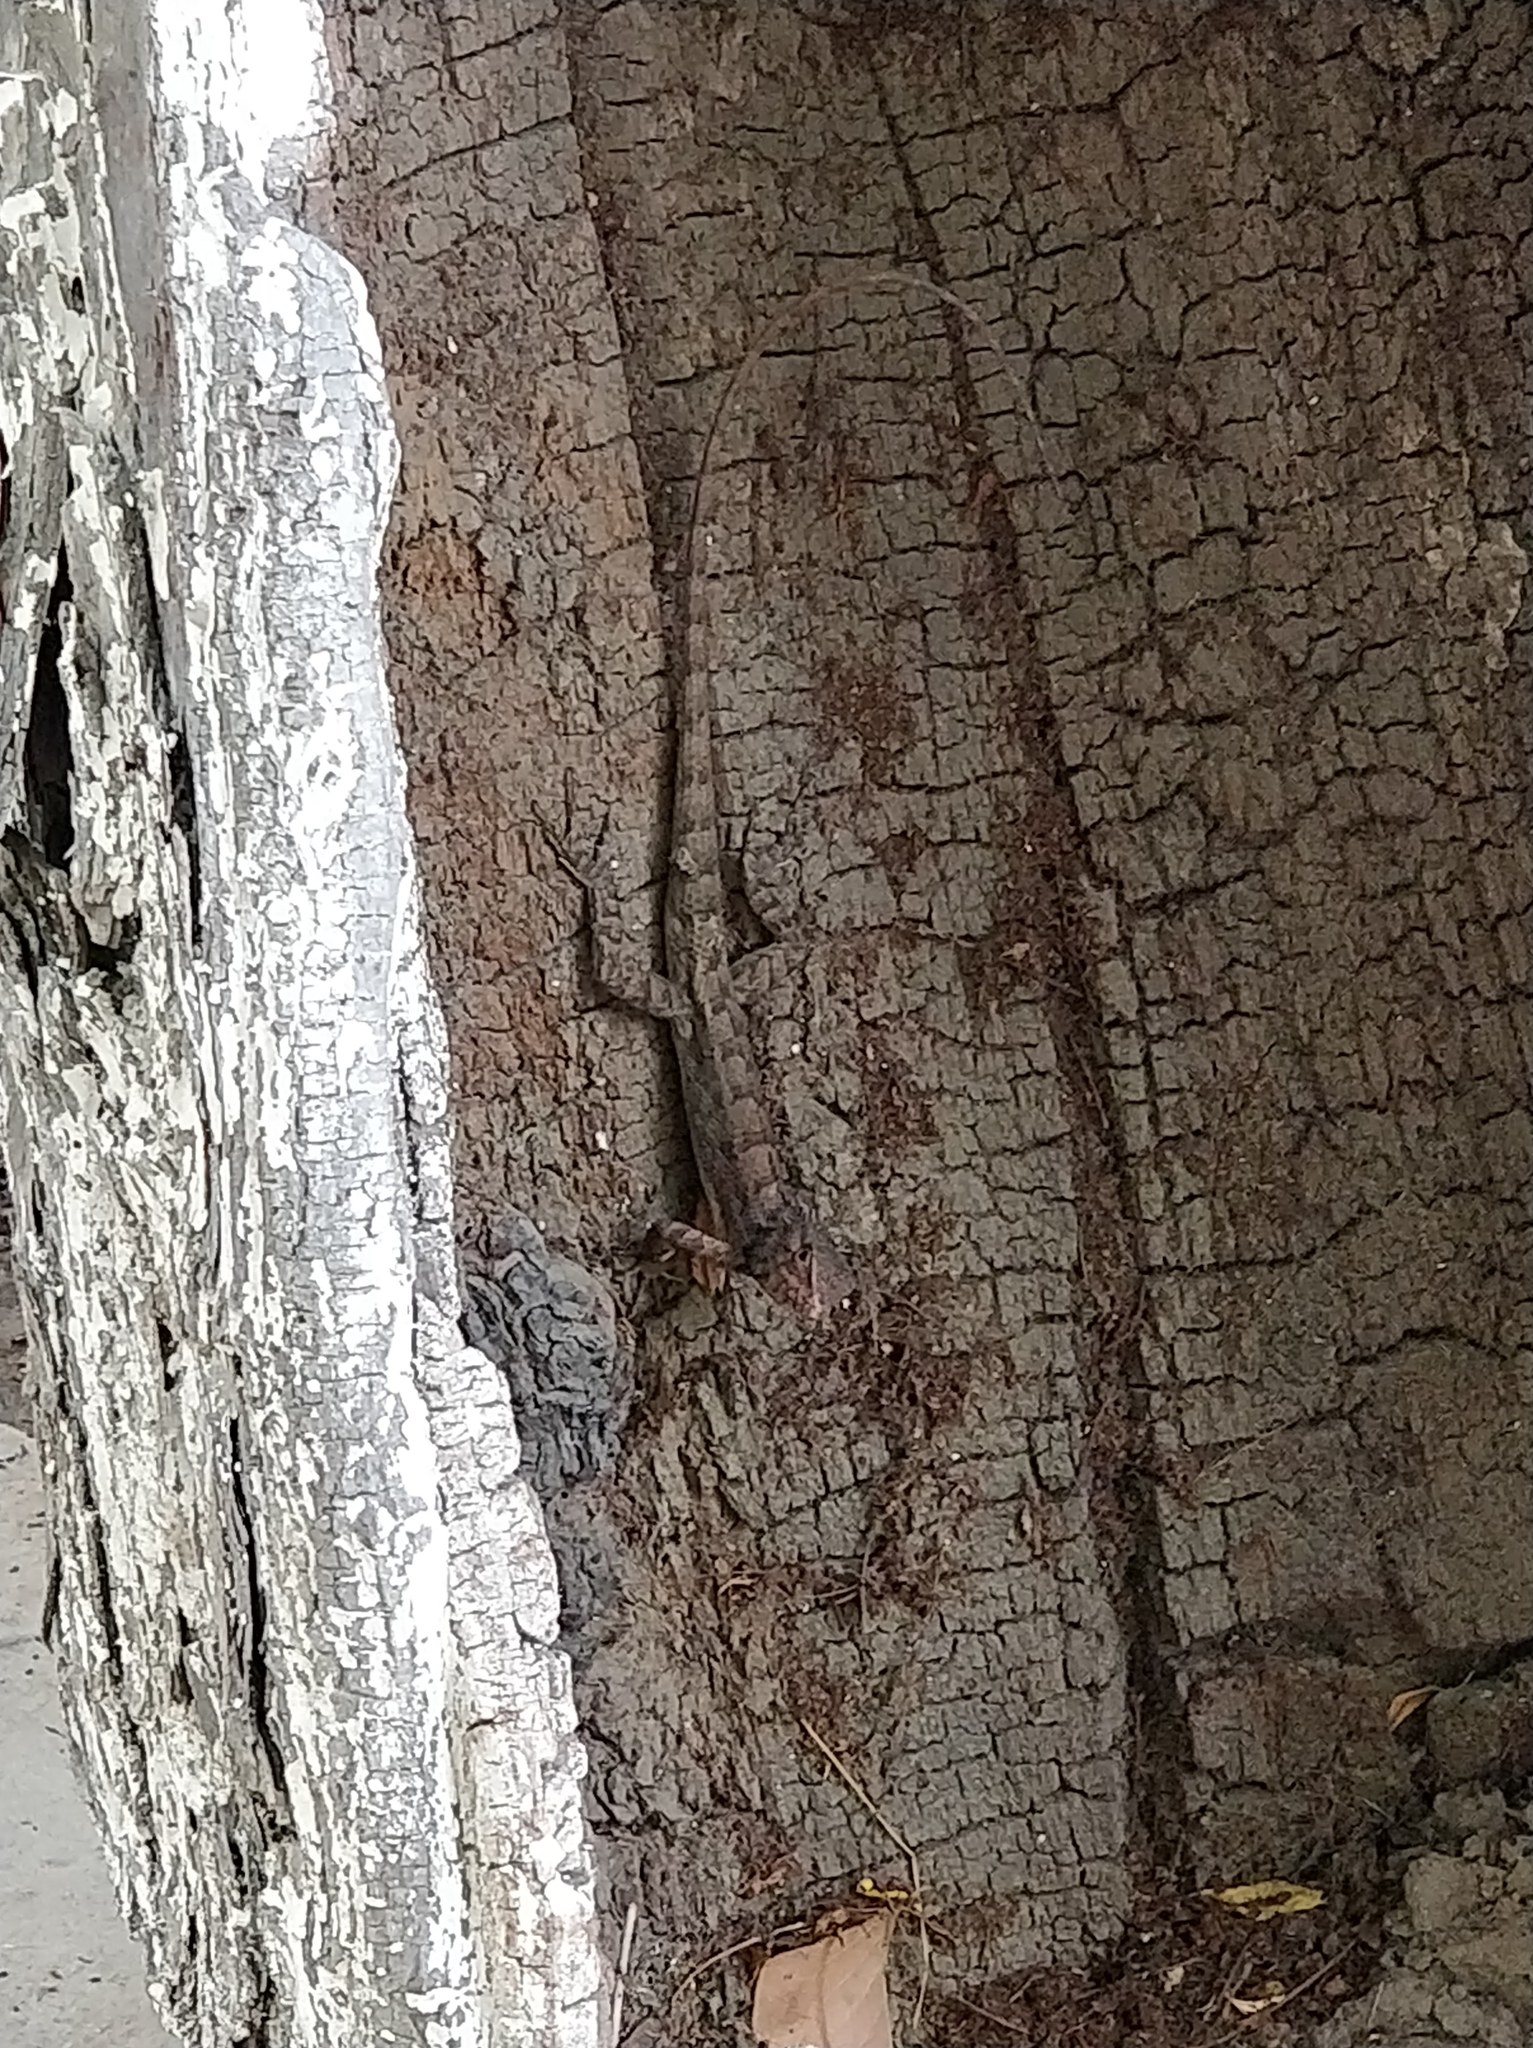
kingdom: Animalia
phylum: Chordata
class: Squamata
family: Agamidae
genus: Calotes
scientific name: Calotes versicolor
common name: Oriental garden lizard
